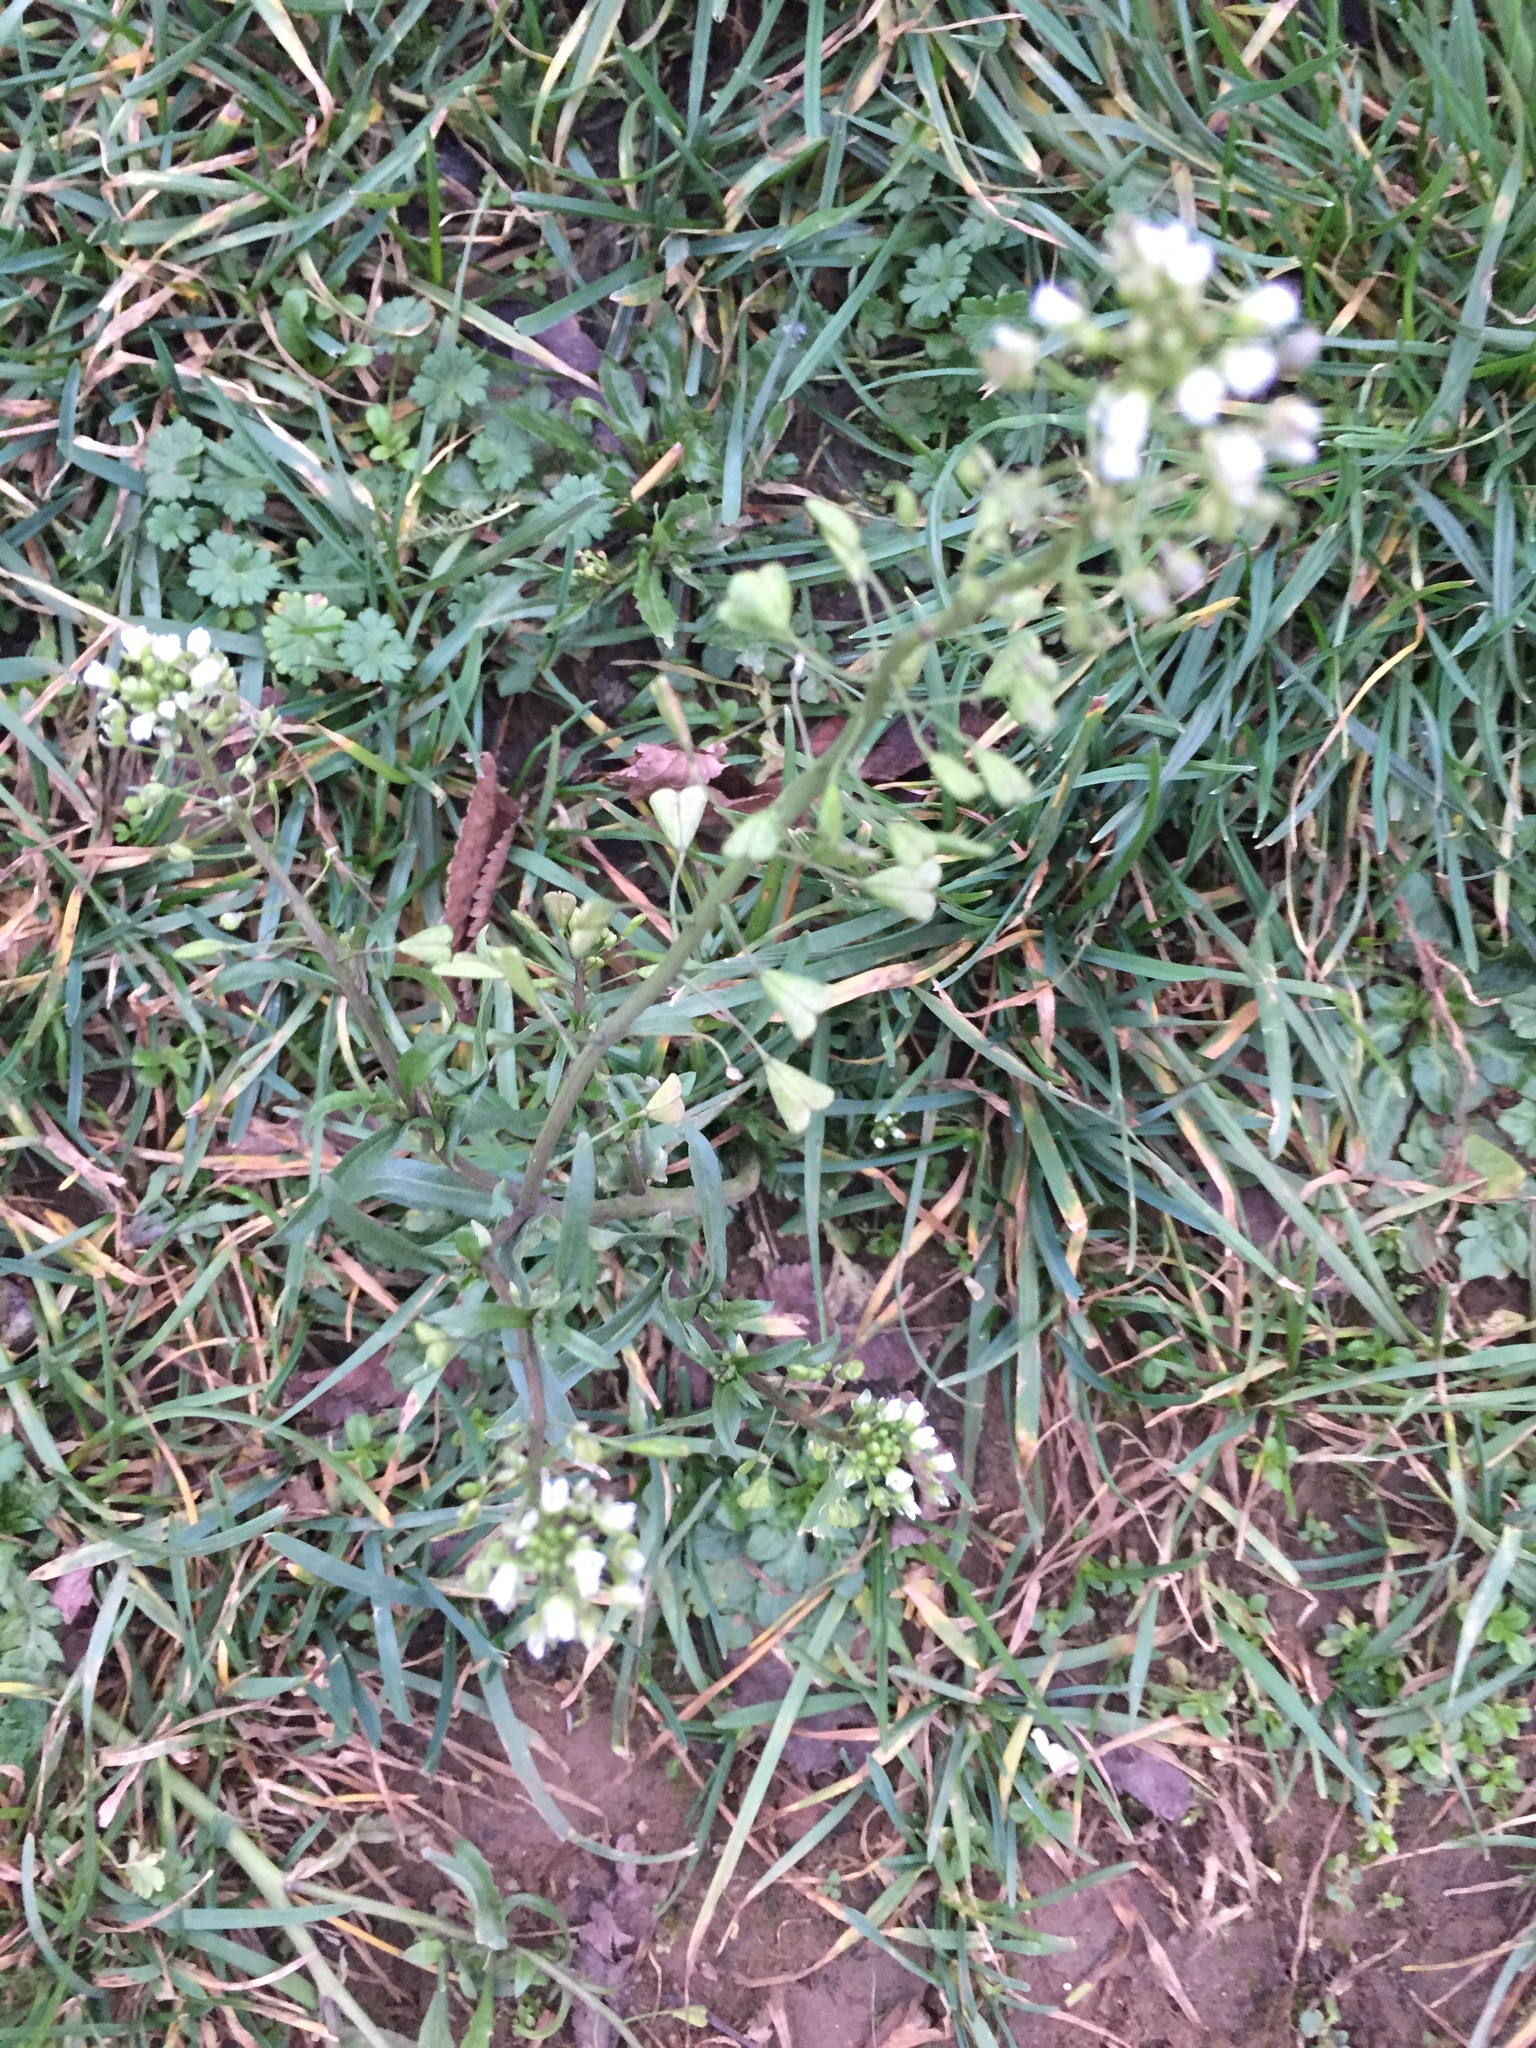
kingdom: Plantae
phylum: Tracheophyta
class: Magnoliopsida
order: Brassicales
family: Brassicaceae
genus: Capsella
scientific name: Capsella bursa-pastoris
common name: Shepherd's purse
